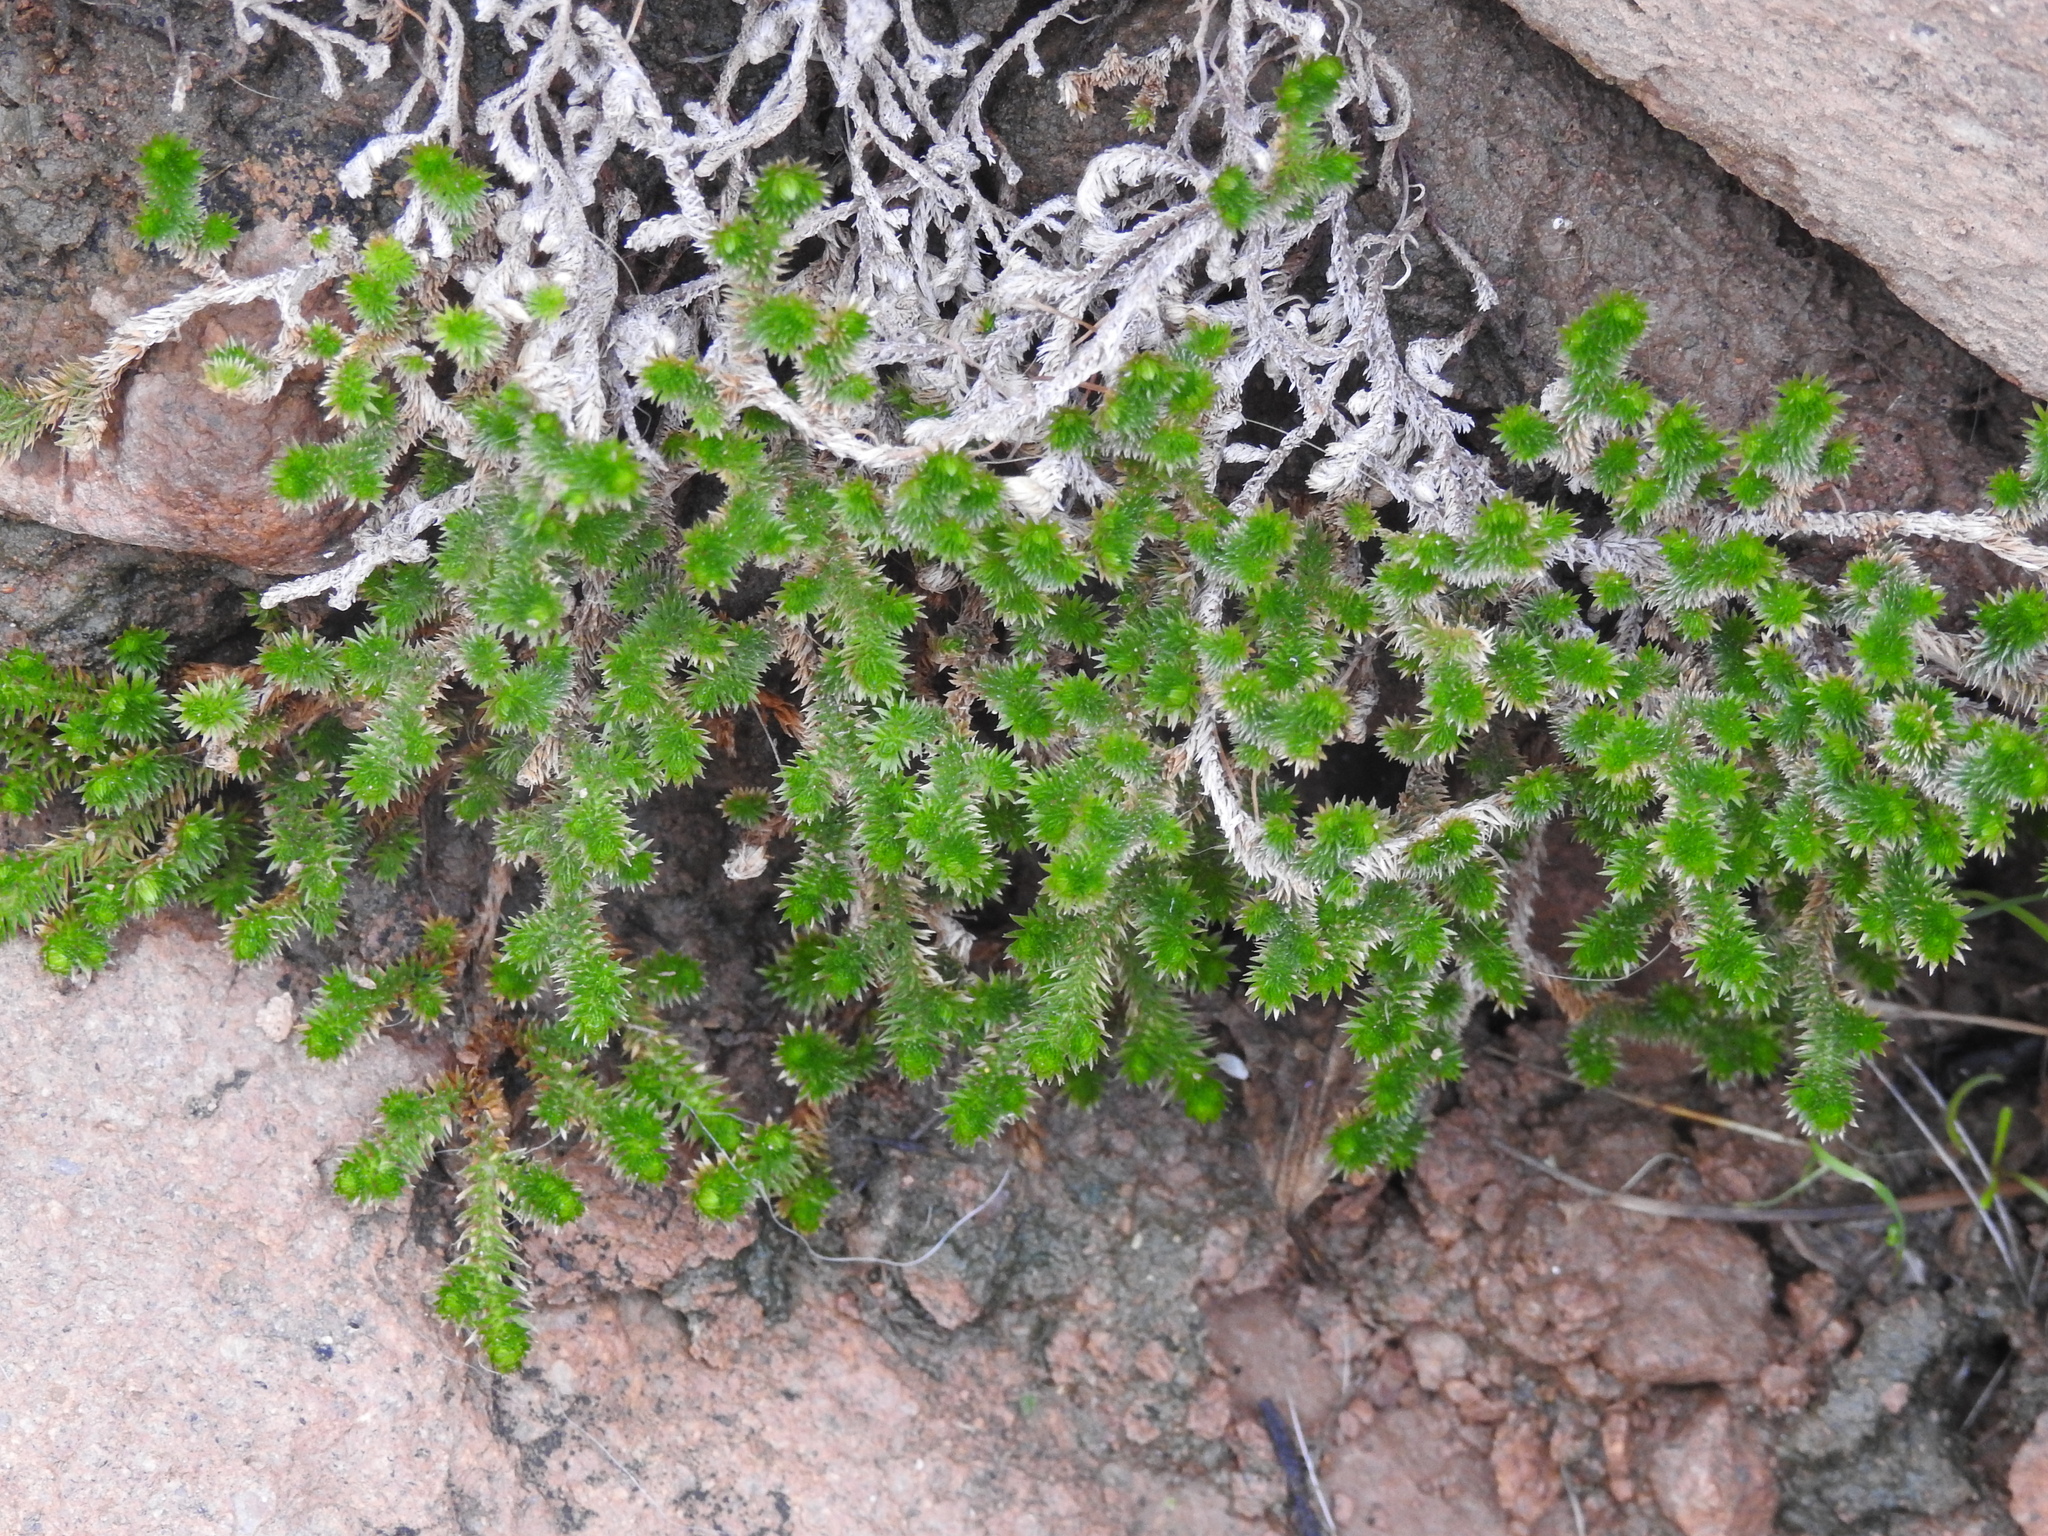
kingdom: Plantae
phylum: Tracheophyta
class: Lycopodiopsida
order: Selaginellales
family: Selaginellaceae
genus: Selaginella
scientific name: Selaginella arizonica
